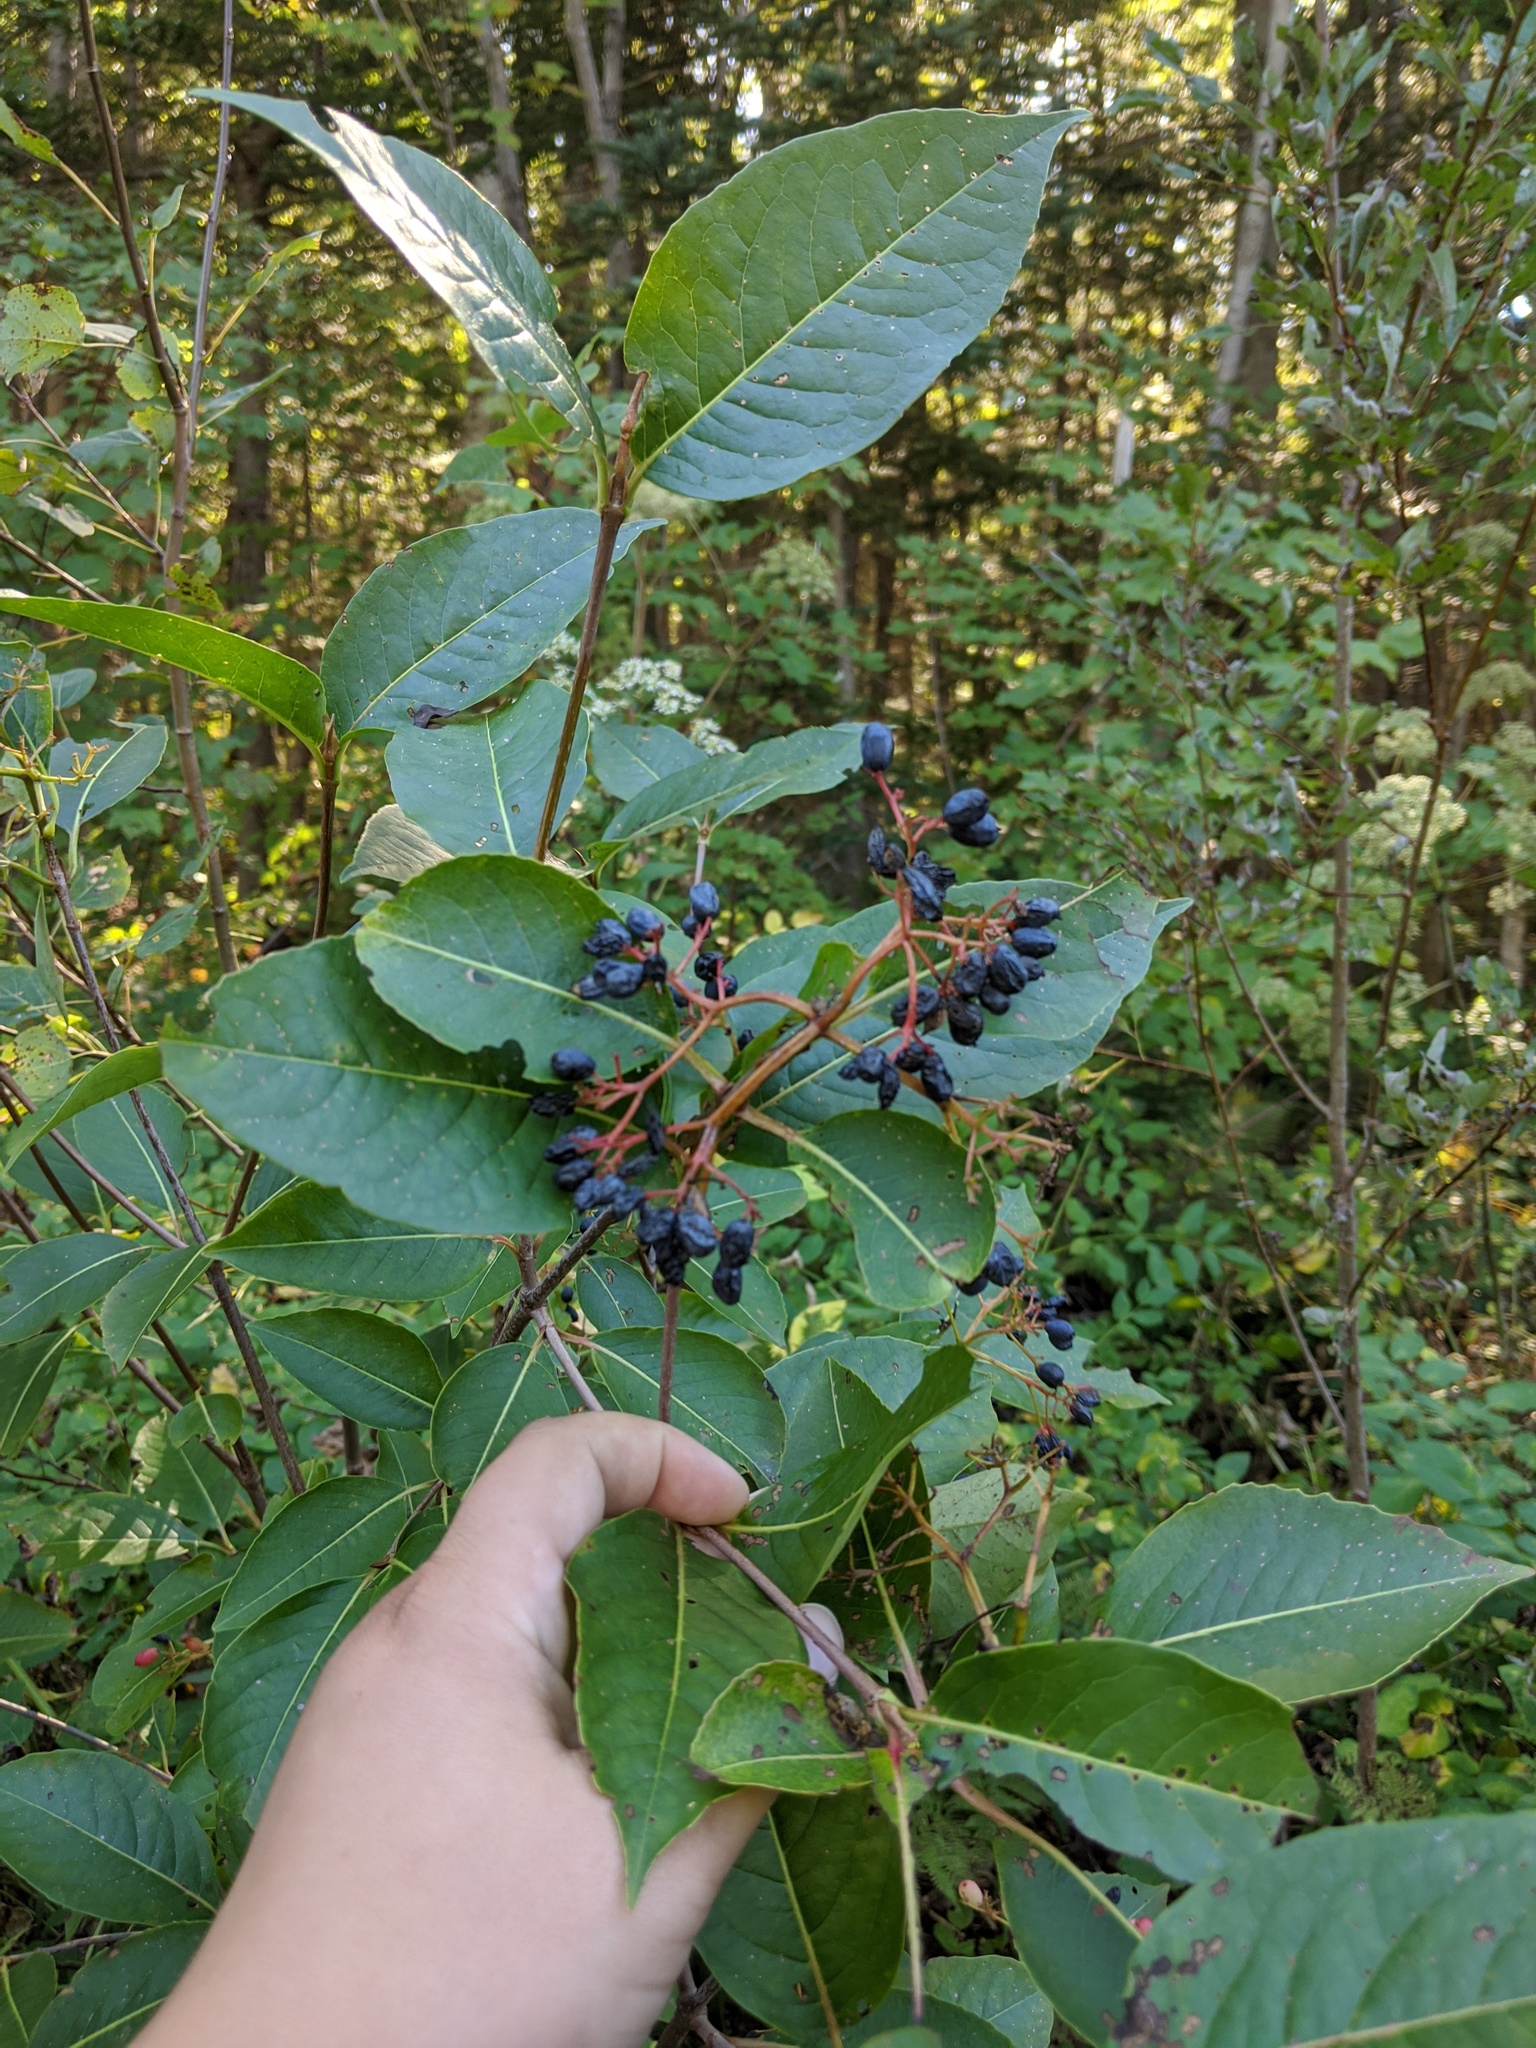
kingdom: Plantae
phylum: Tracheophyta
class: Magnoliopsida
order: Dipsacales
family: Viburnaceae
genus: Viburnum
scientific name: Viburnum cassinoides
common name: Swamp haw
